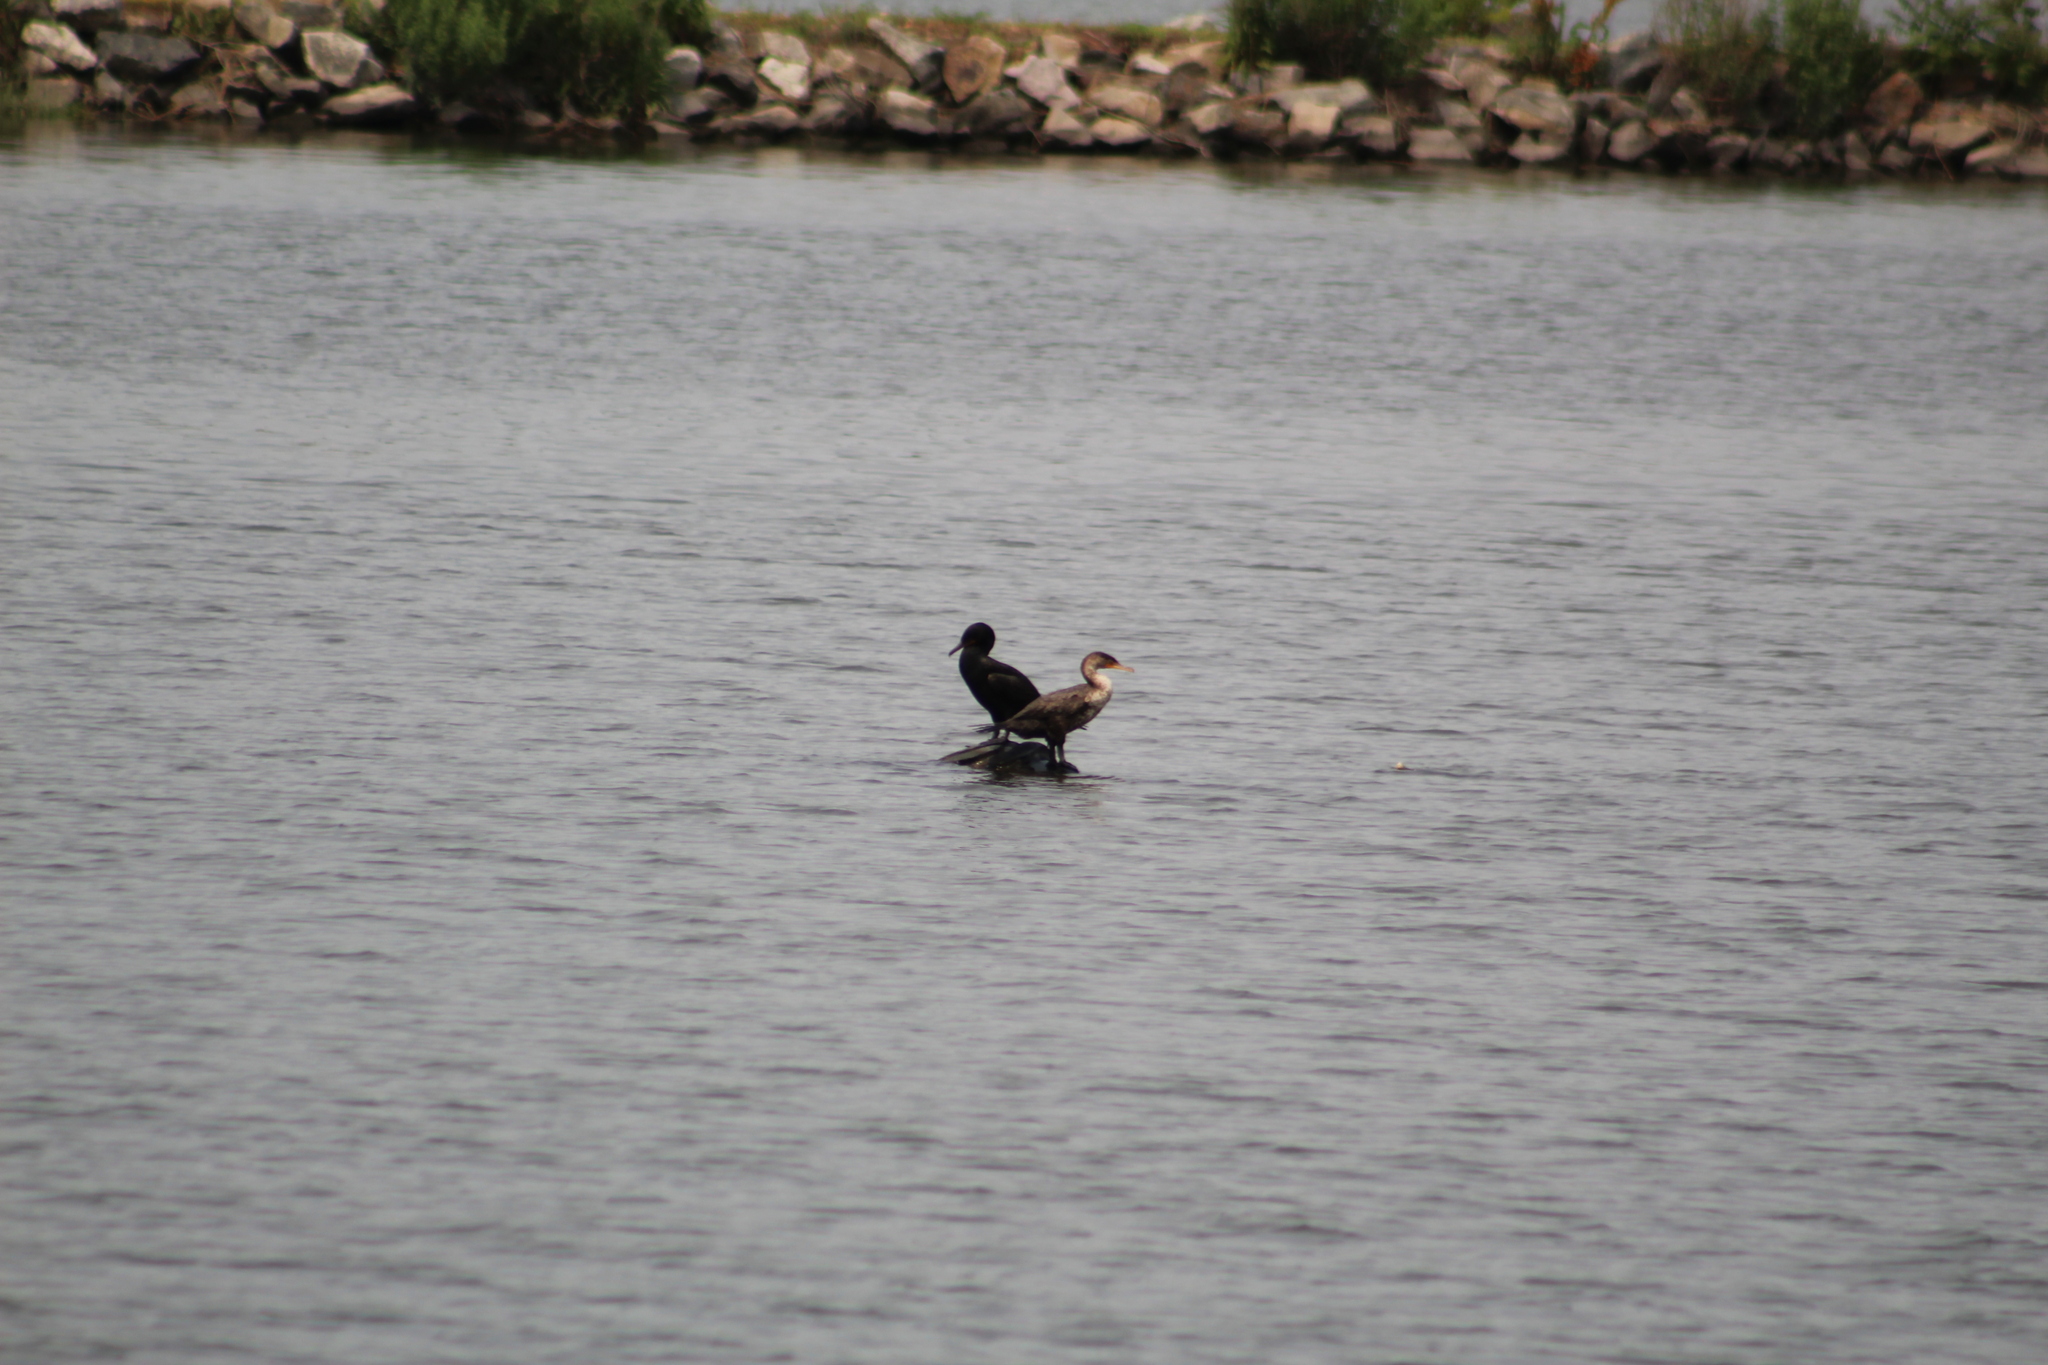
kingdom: Animalia
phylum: Chordata
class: Aves
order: Suliformes
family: Phalacrocoracidae
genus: Phalacrocorax
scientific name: Phalacrocorax auritus
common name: Double-crested cormorant
